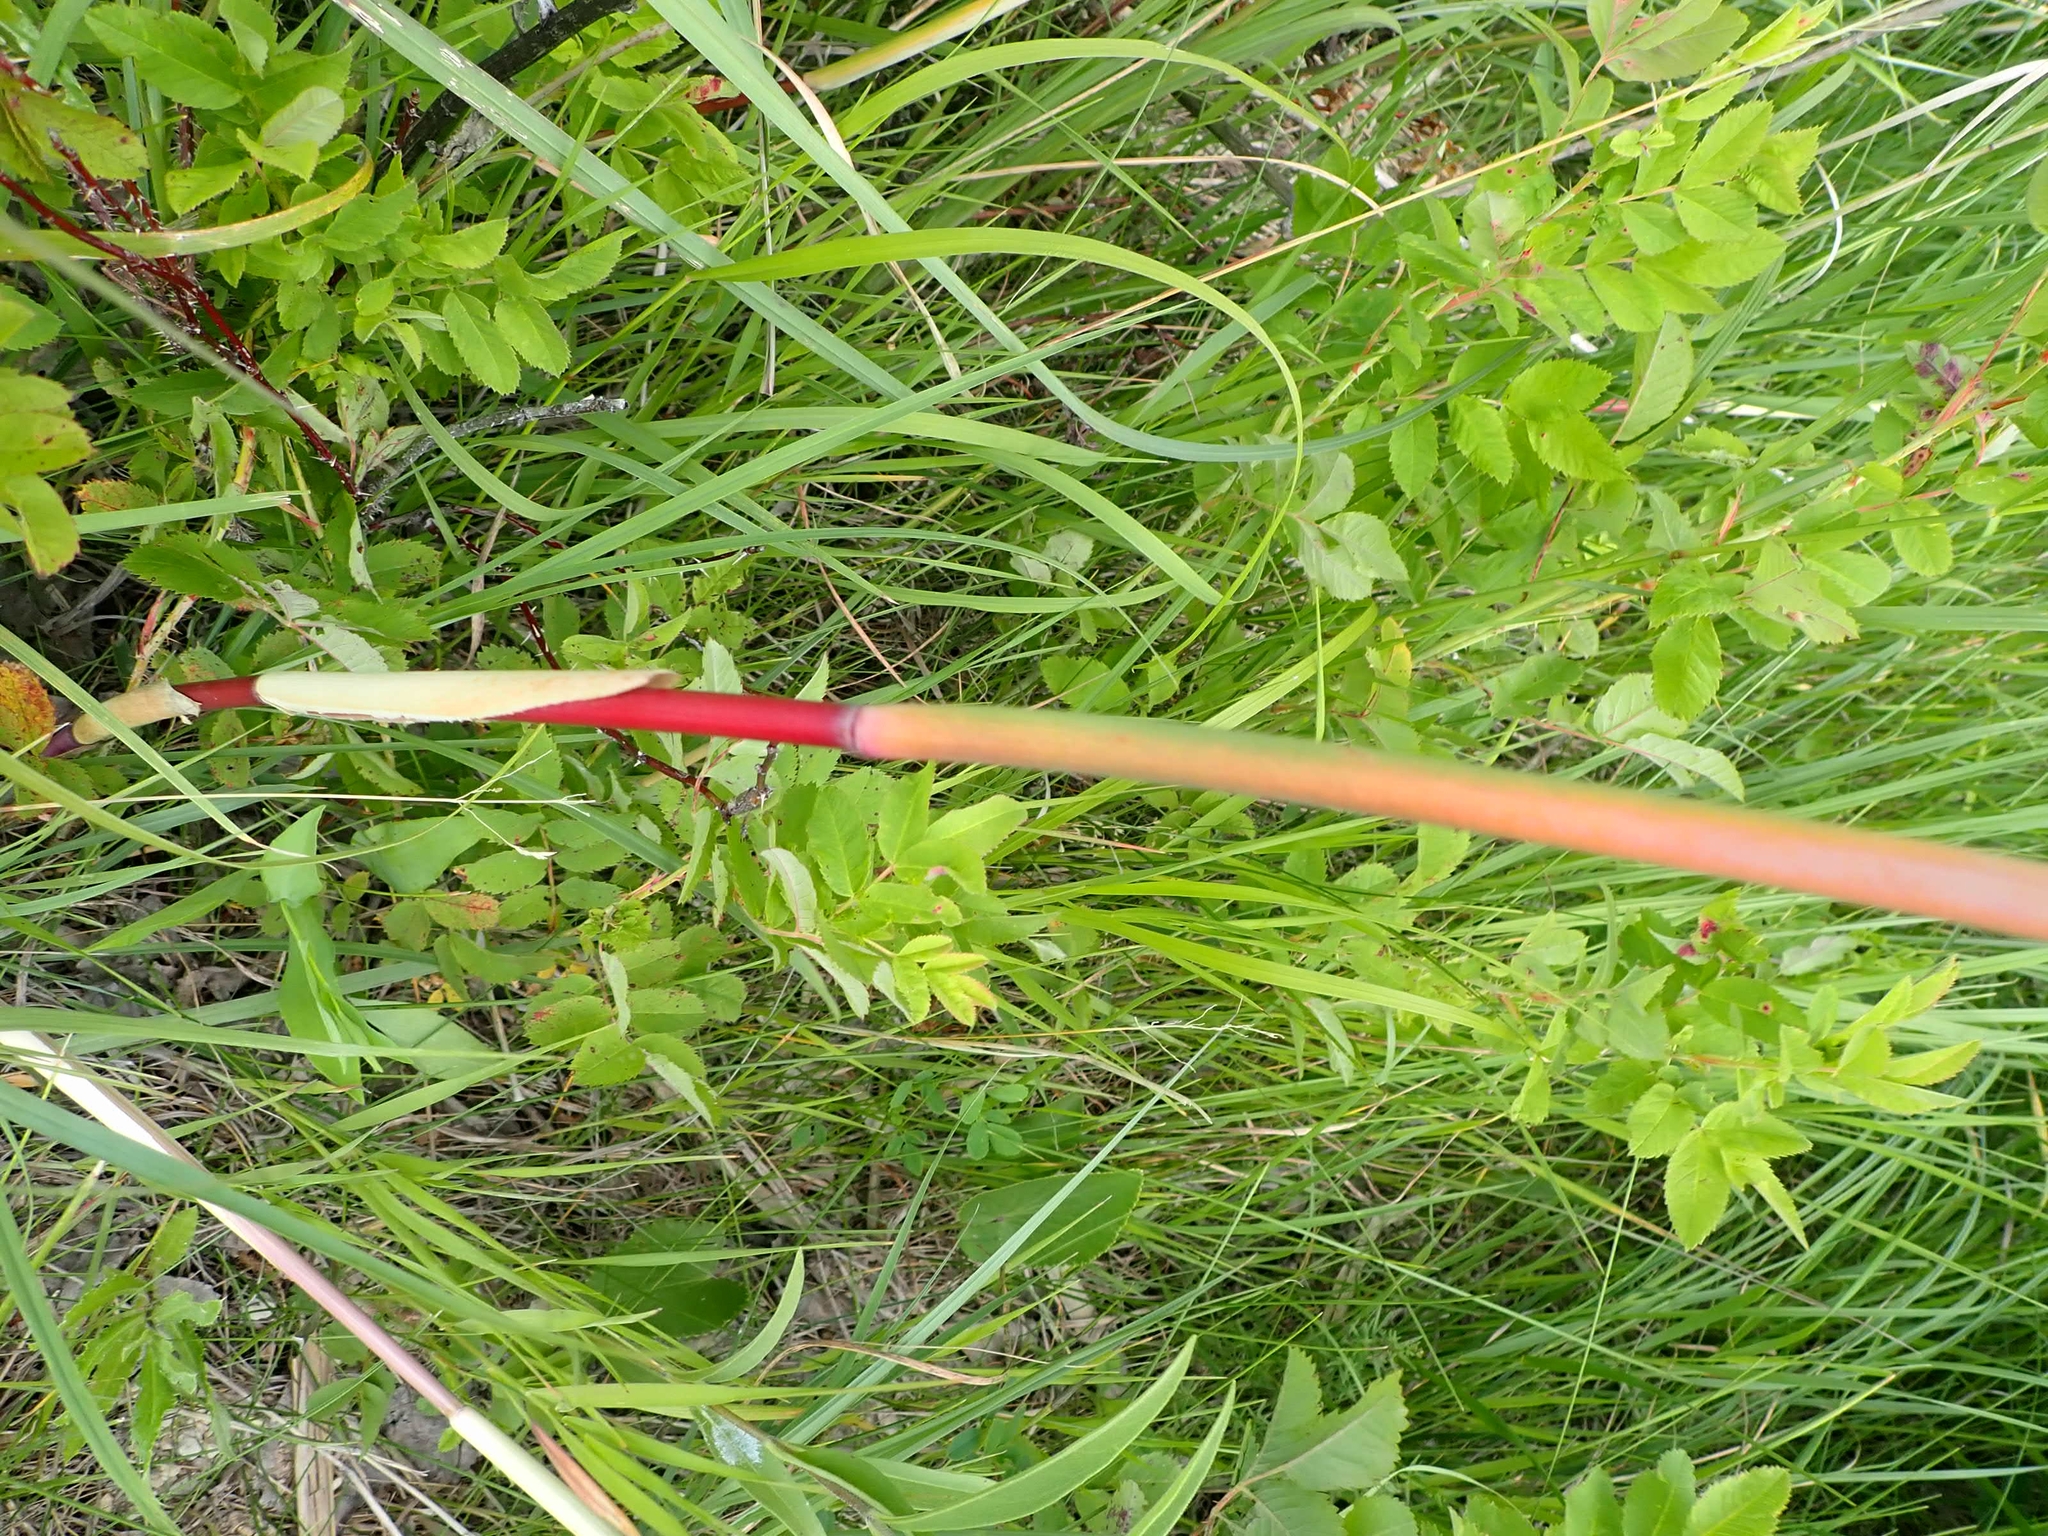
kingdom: Plantae
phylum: Tracheophyta
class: Liliopsida
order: Poales
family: Poaceae
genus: Phragmites
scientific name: Phragmites australis
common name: Common reed
